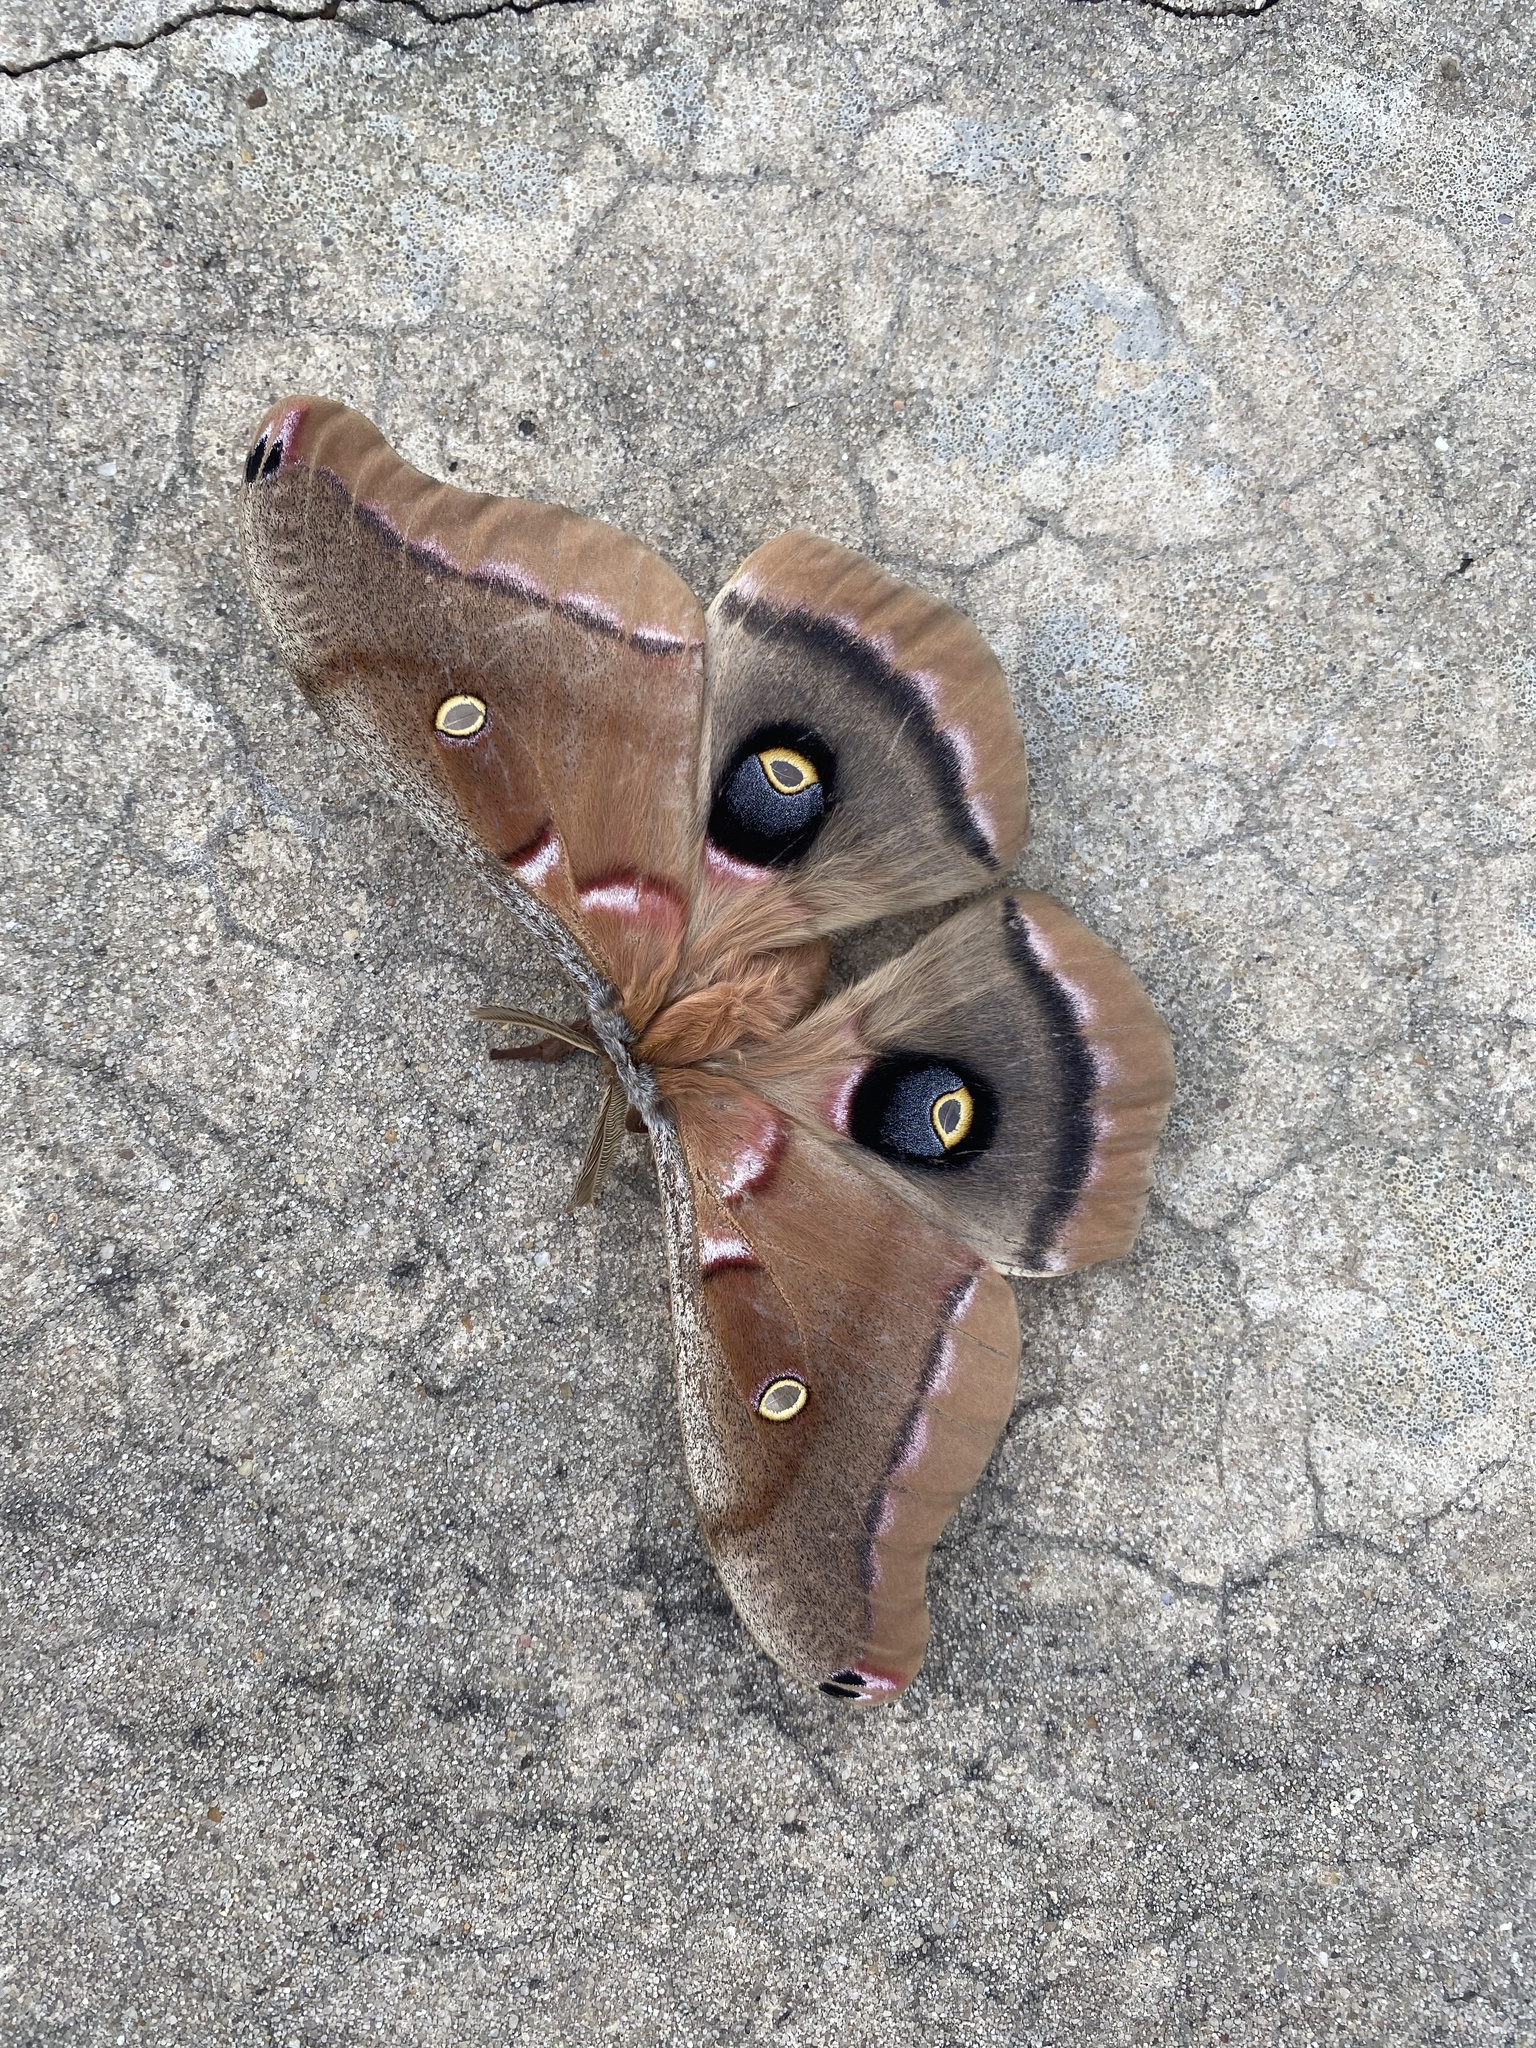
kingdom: Animalia
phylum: Arthropoda
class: Insecta
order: Lepidoptera
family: Saturniidae
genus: Antheraea
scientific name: Antheraea polyphemus
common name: Polyphemus moth
